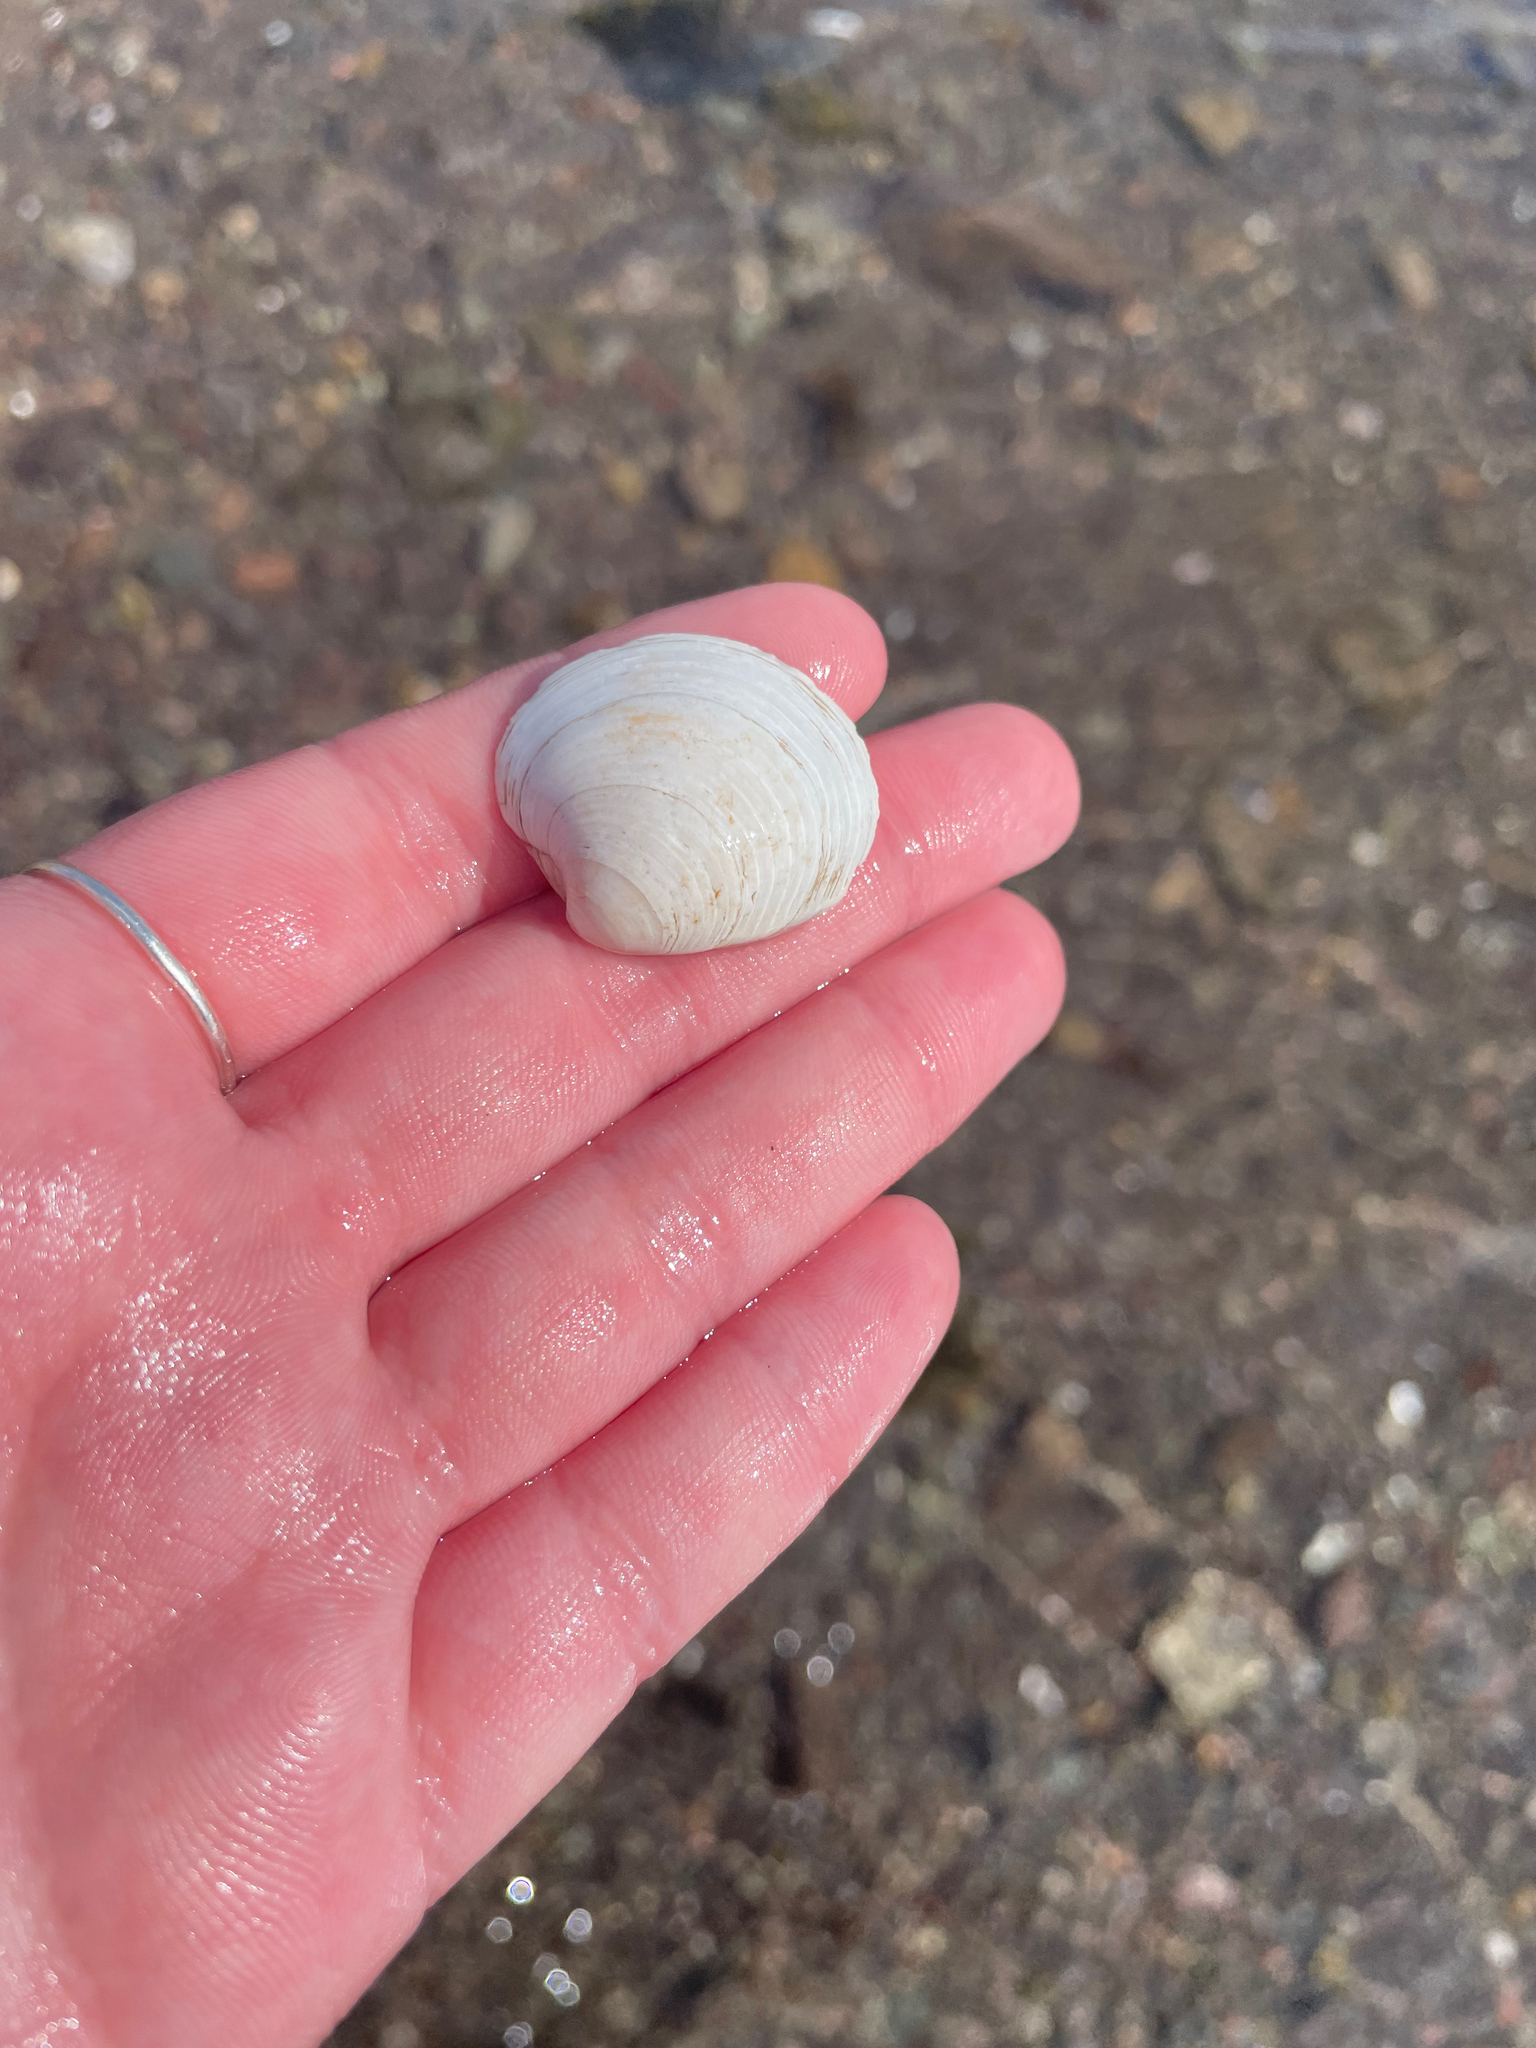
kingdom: Animalia
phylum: Mollusca
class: Bivalvia
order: Venerida
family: Veneridae
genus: Mercenaria
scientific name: Mercenaria mercenaria
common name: American hard-shelled clam
